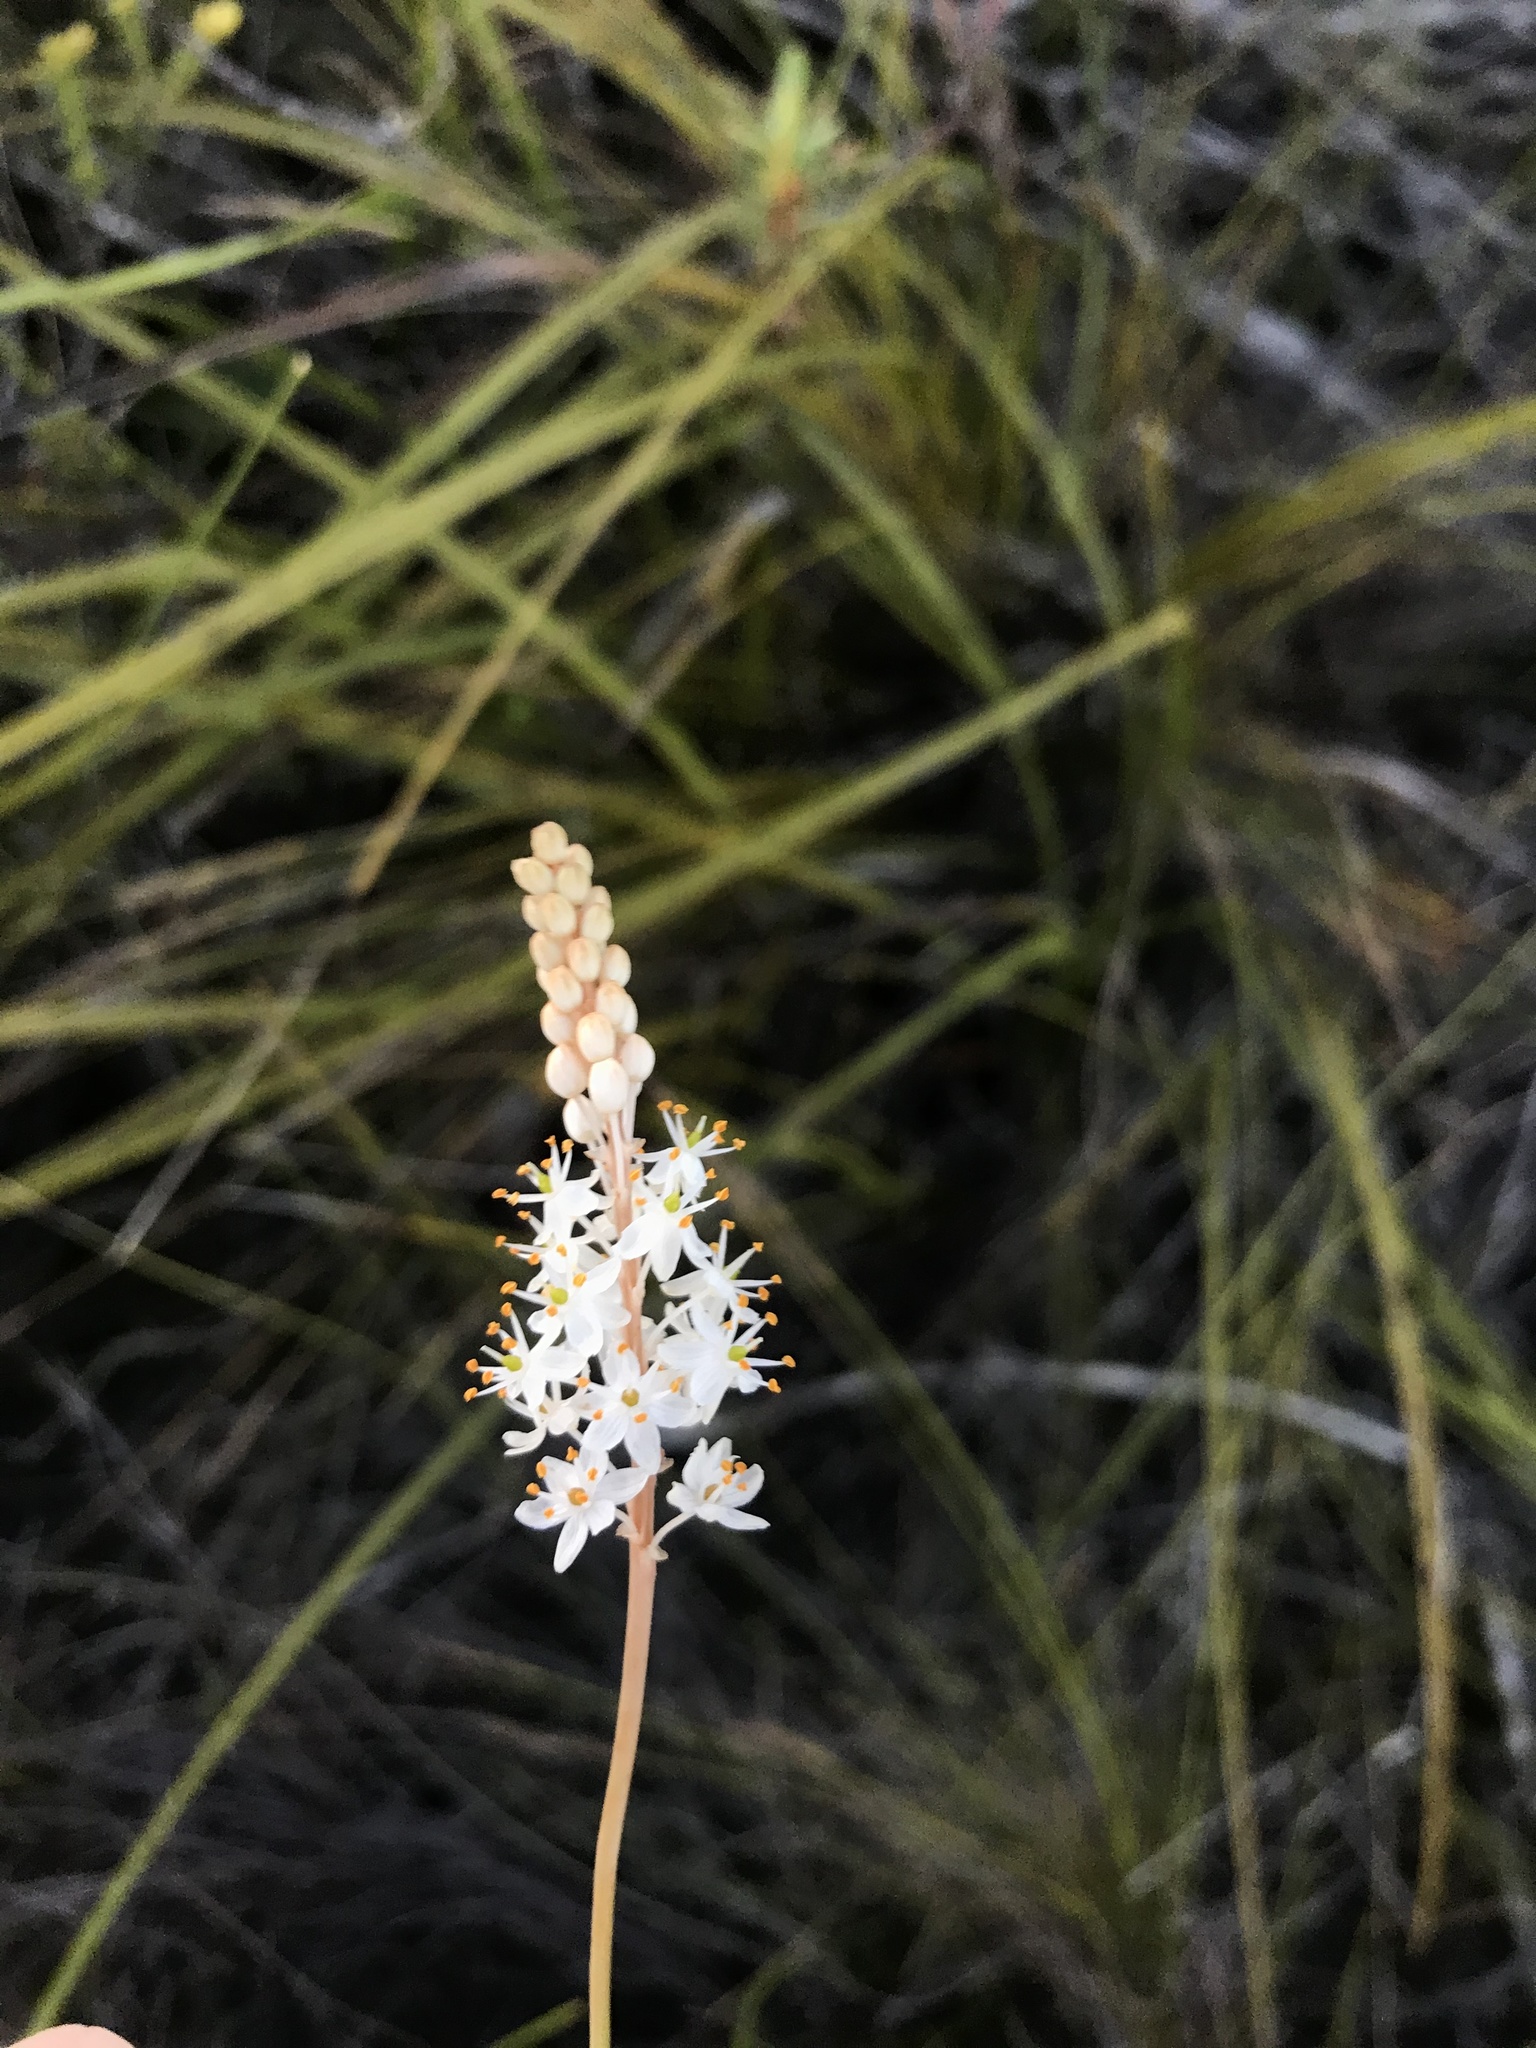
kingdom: Plantae
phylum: Tracheophyta
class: Liliopsida
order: Asparagales
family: Asphodelaceae
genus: Bulbinella
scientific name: Bulbinella trinervis
